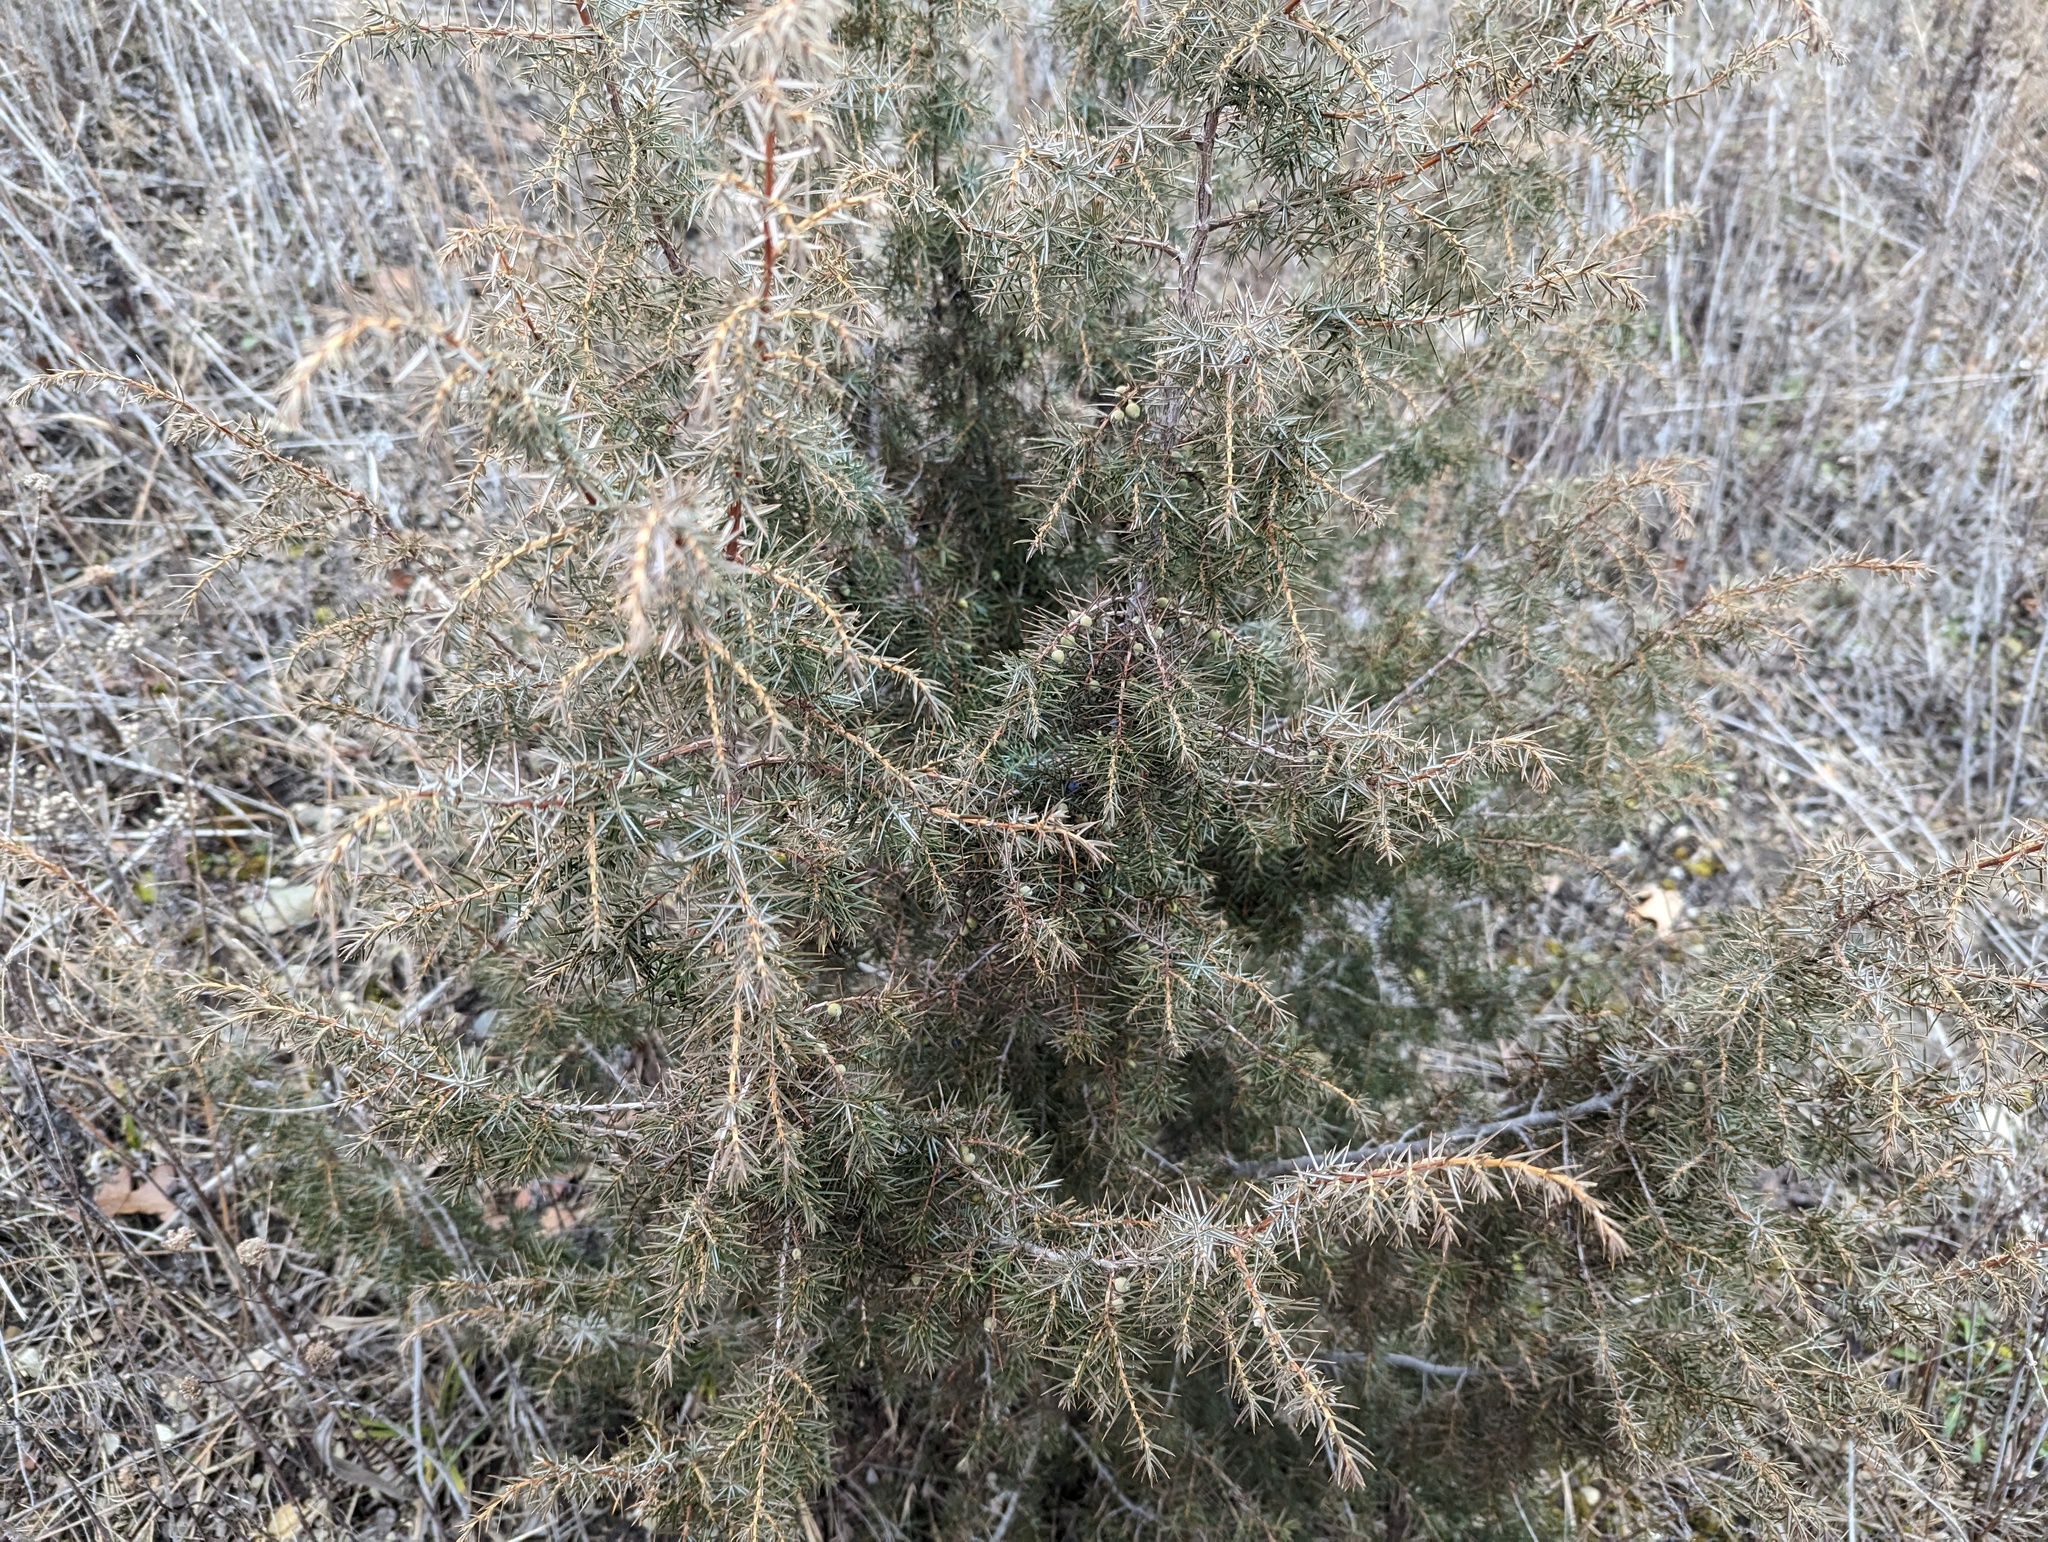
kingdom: Plantae
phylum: Tracheophyta
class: Pinopsida
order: Pinales
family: Cupressaceae
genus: Juniperus
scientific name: Juniperus communis
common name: Common juniper
